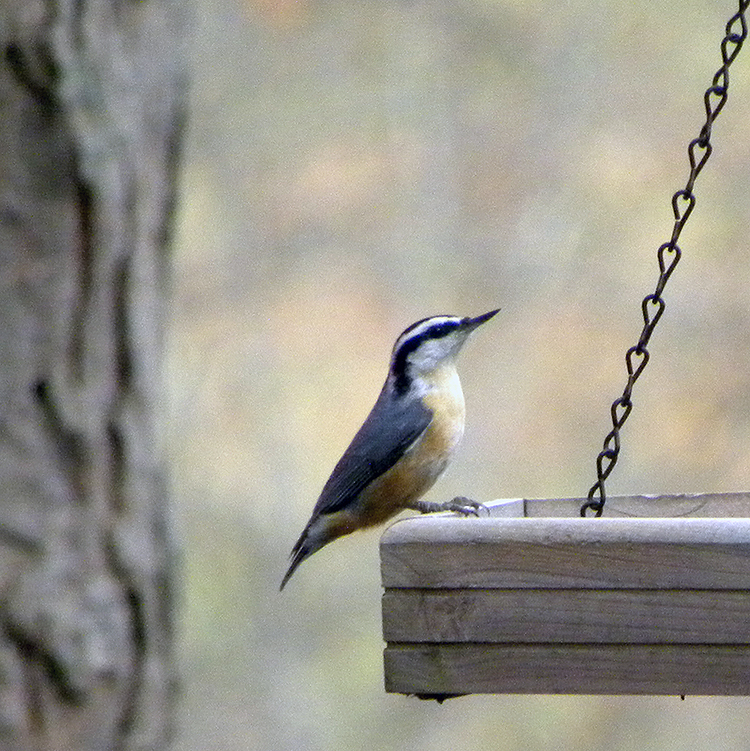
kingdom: Animalia
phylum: Chordata
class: Aves
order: Passeriformes
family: Sittidae
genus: Sitta
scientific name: Sitta canadensis
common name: Red-breasted nuthatch
